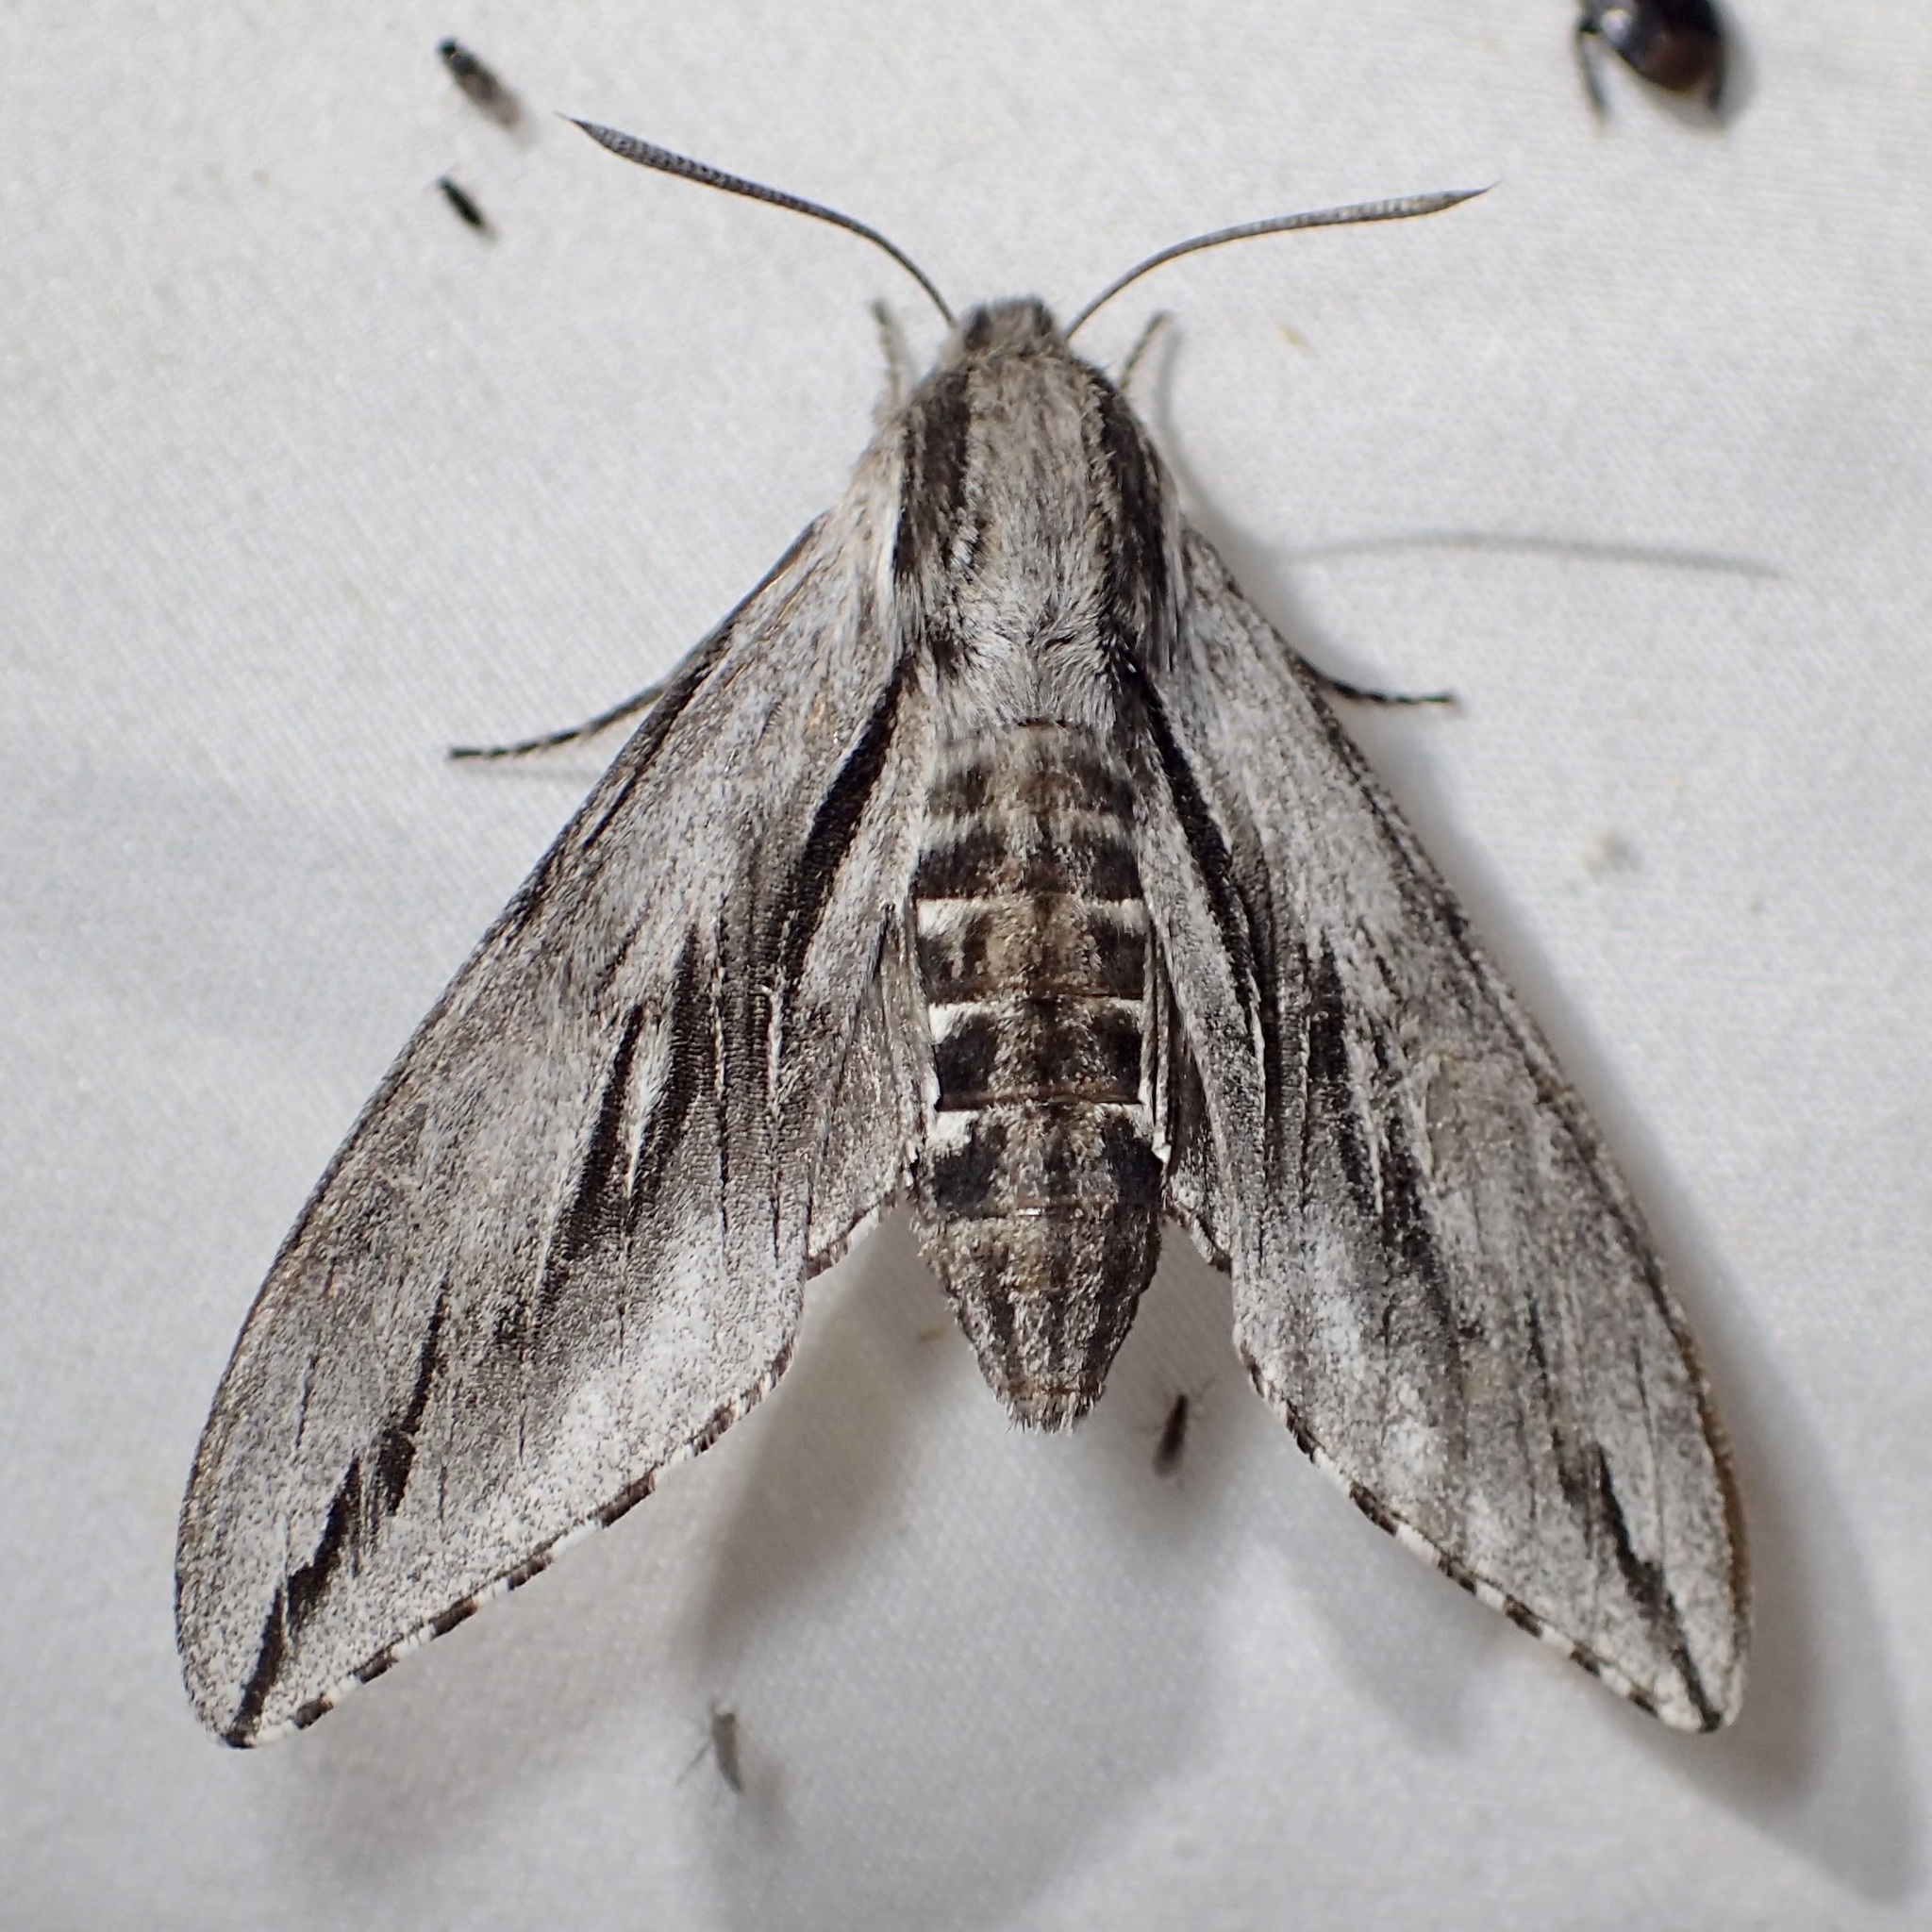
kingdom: Animalia
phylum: Arthropoda
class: Insecta
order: Lepidoptera
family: Sphingidae
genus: Sphinx
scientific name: Sphinx dollii
